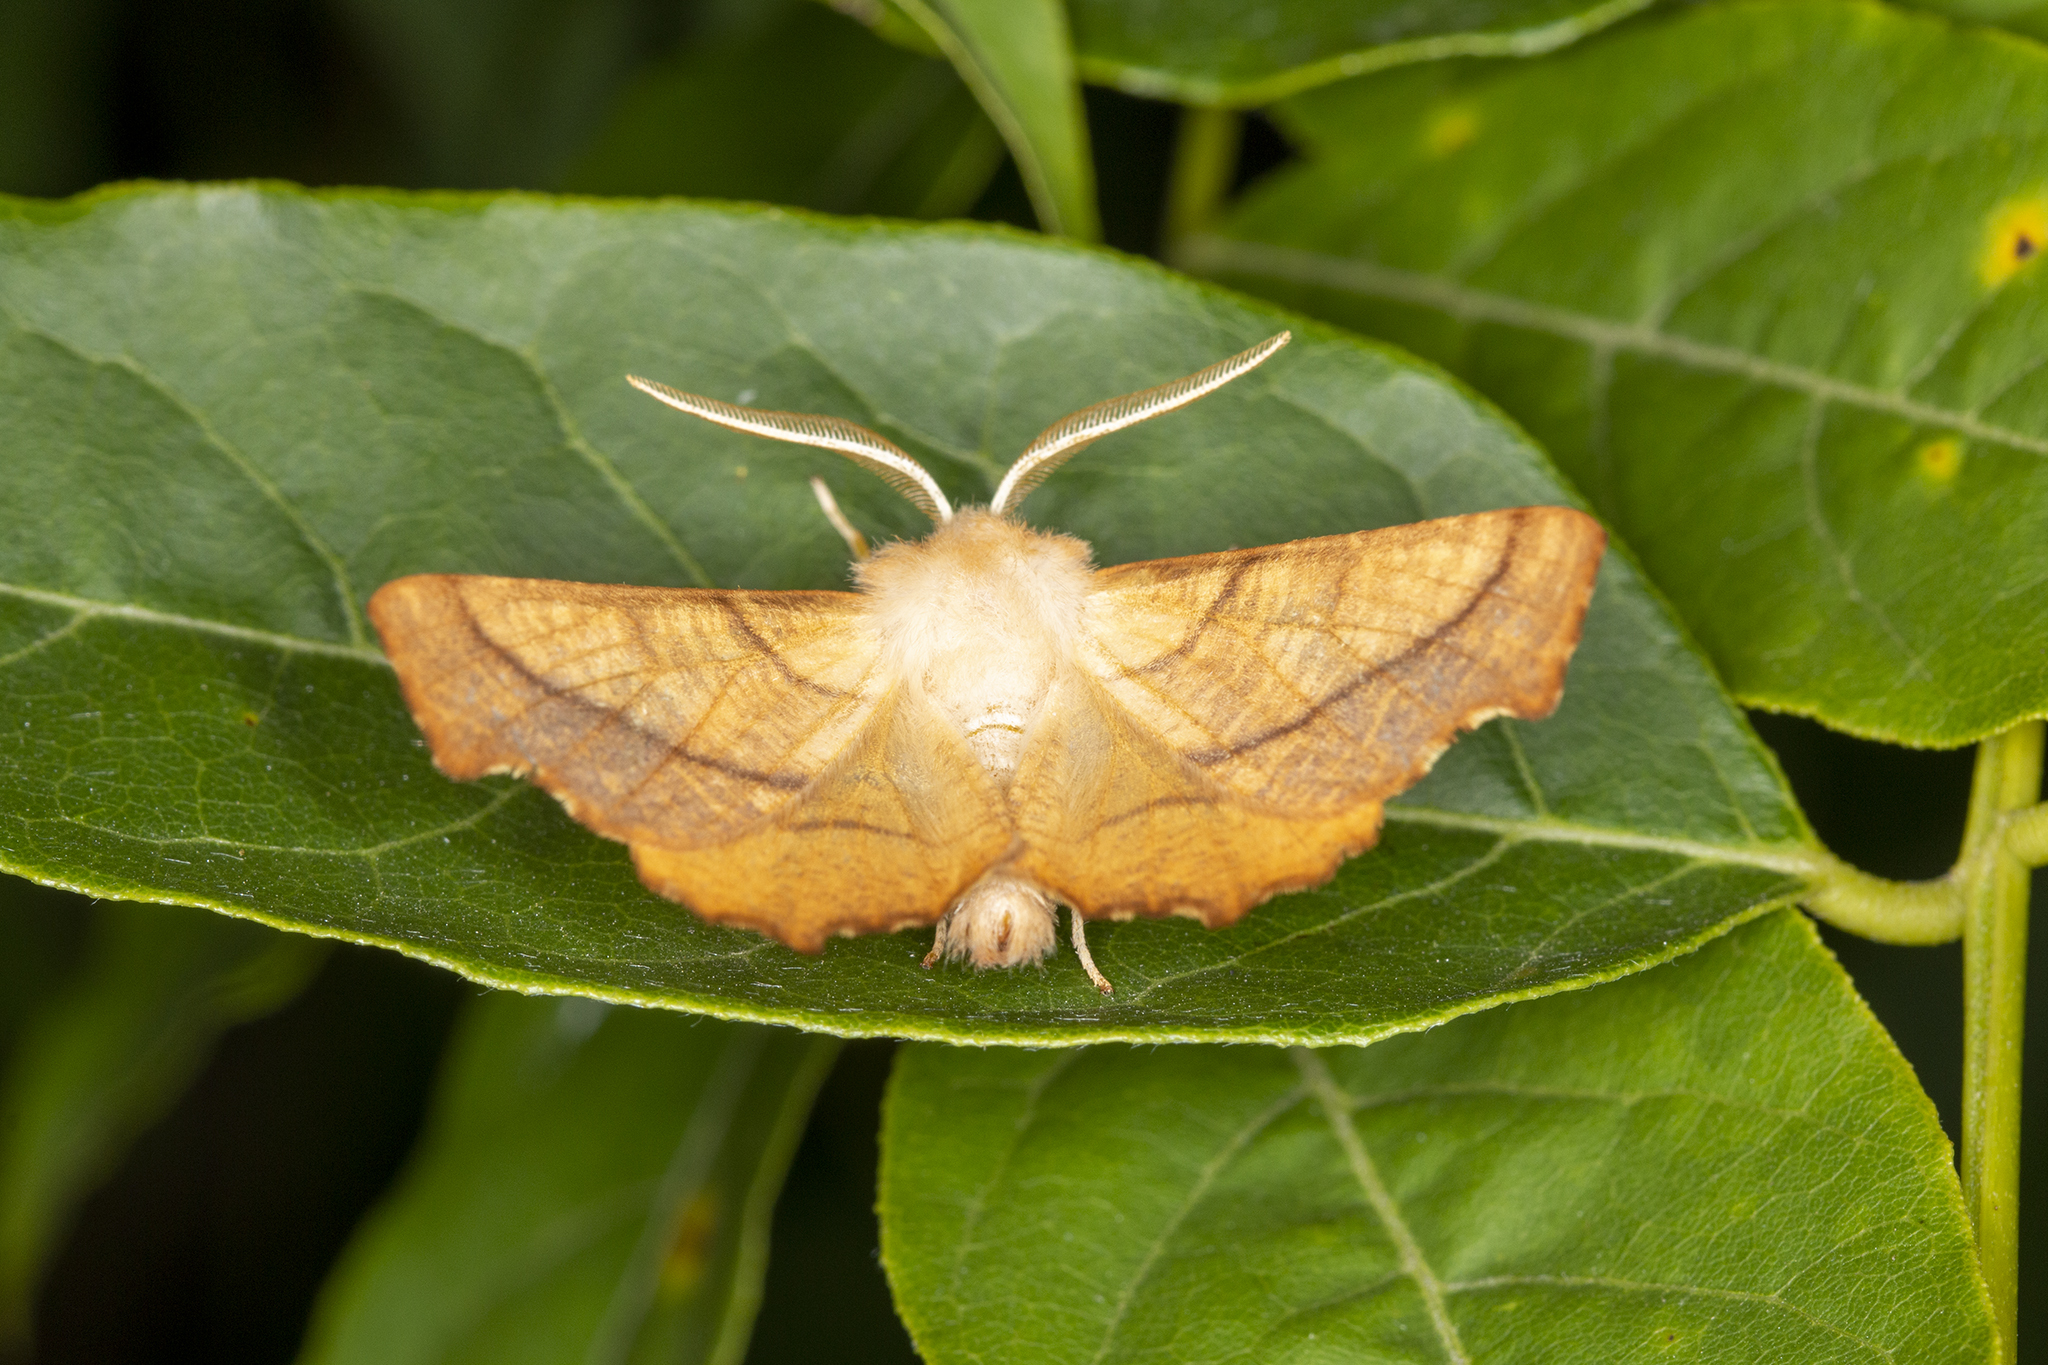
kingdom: Animalia
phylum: Arthropoda
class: Insecta
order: Lepidoptera
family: Geometridae
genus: Ennomos
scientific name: Ennomos fuscantaria
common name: Dusky thorn
